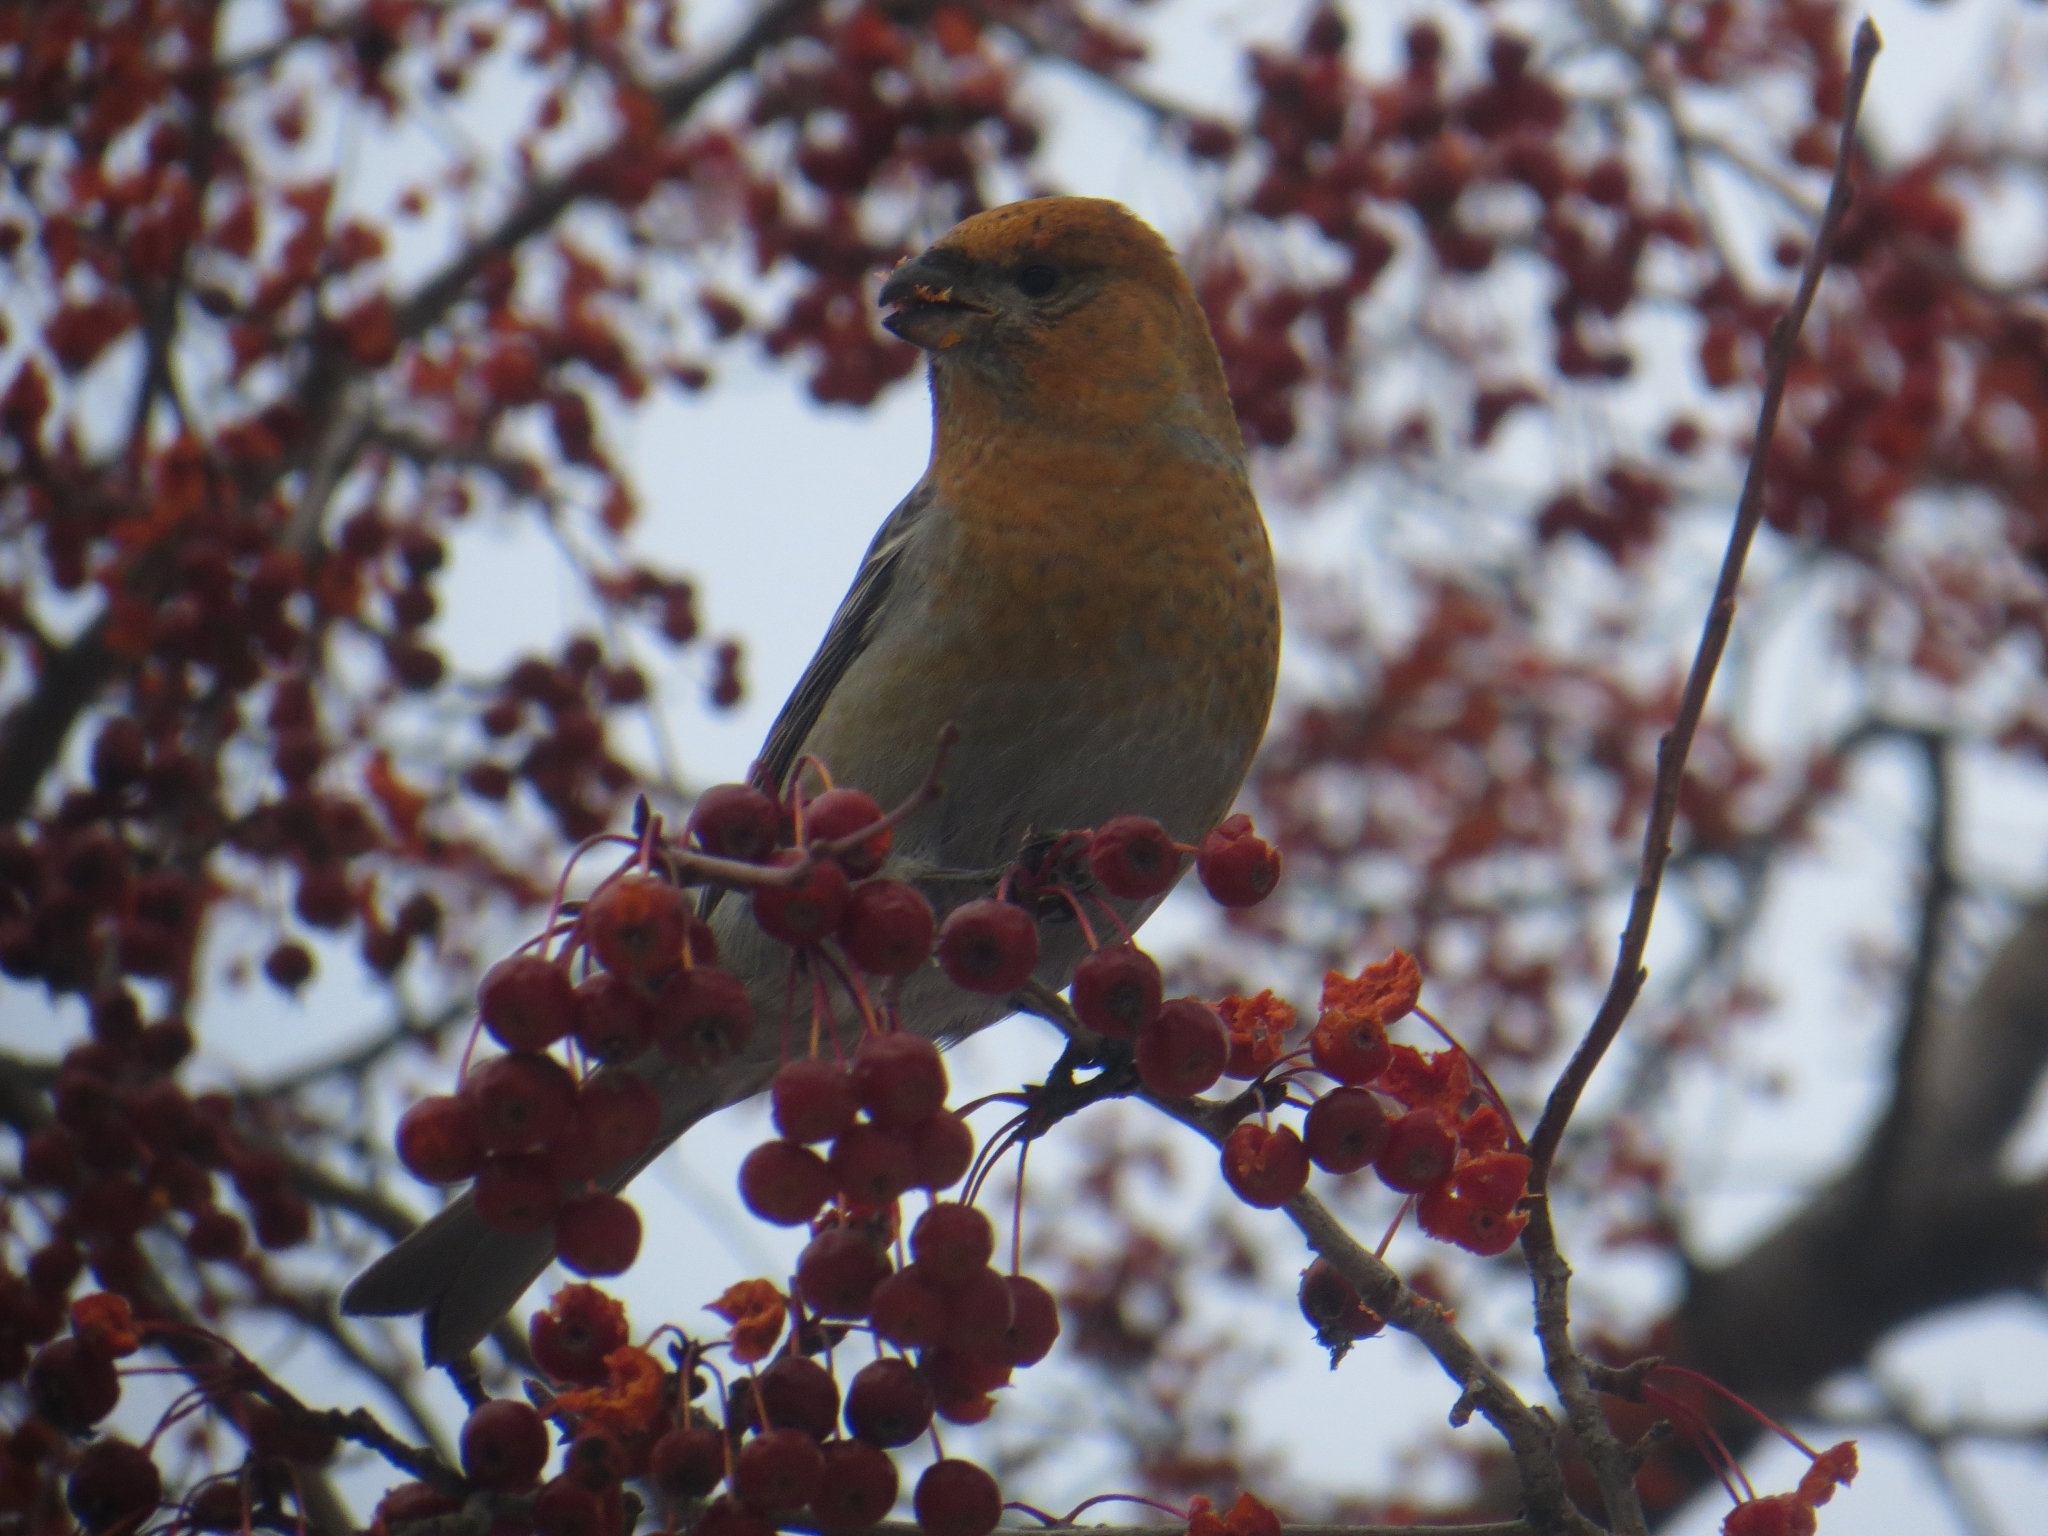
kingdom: Animalia
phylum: Chordata
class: Aves
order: Passeriformes
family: Fringillidae
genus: Pinicola
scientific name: Pinicola enucleator
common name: Pine grosbeak
